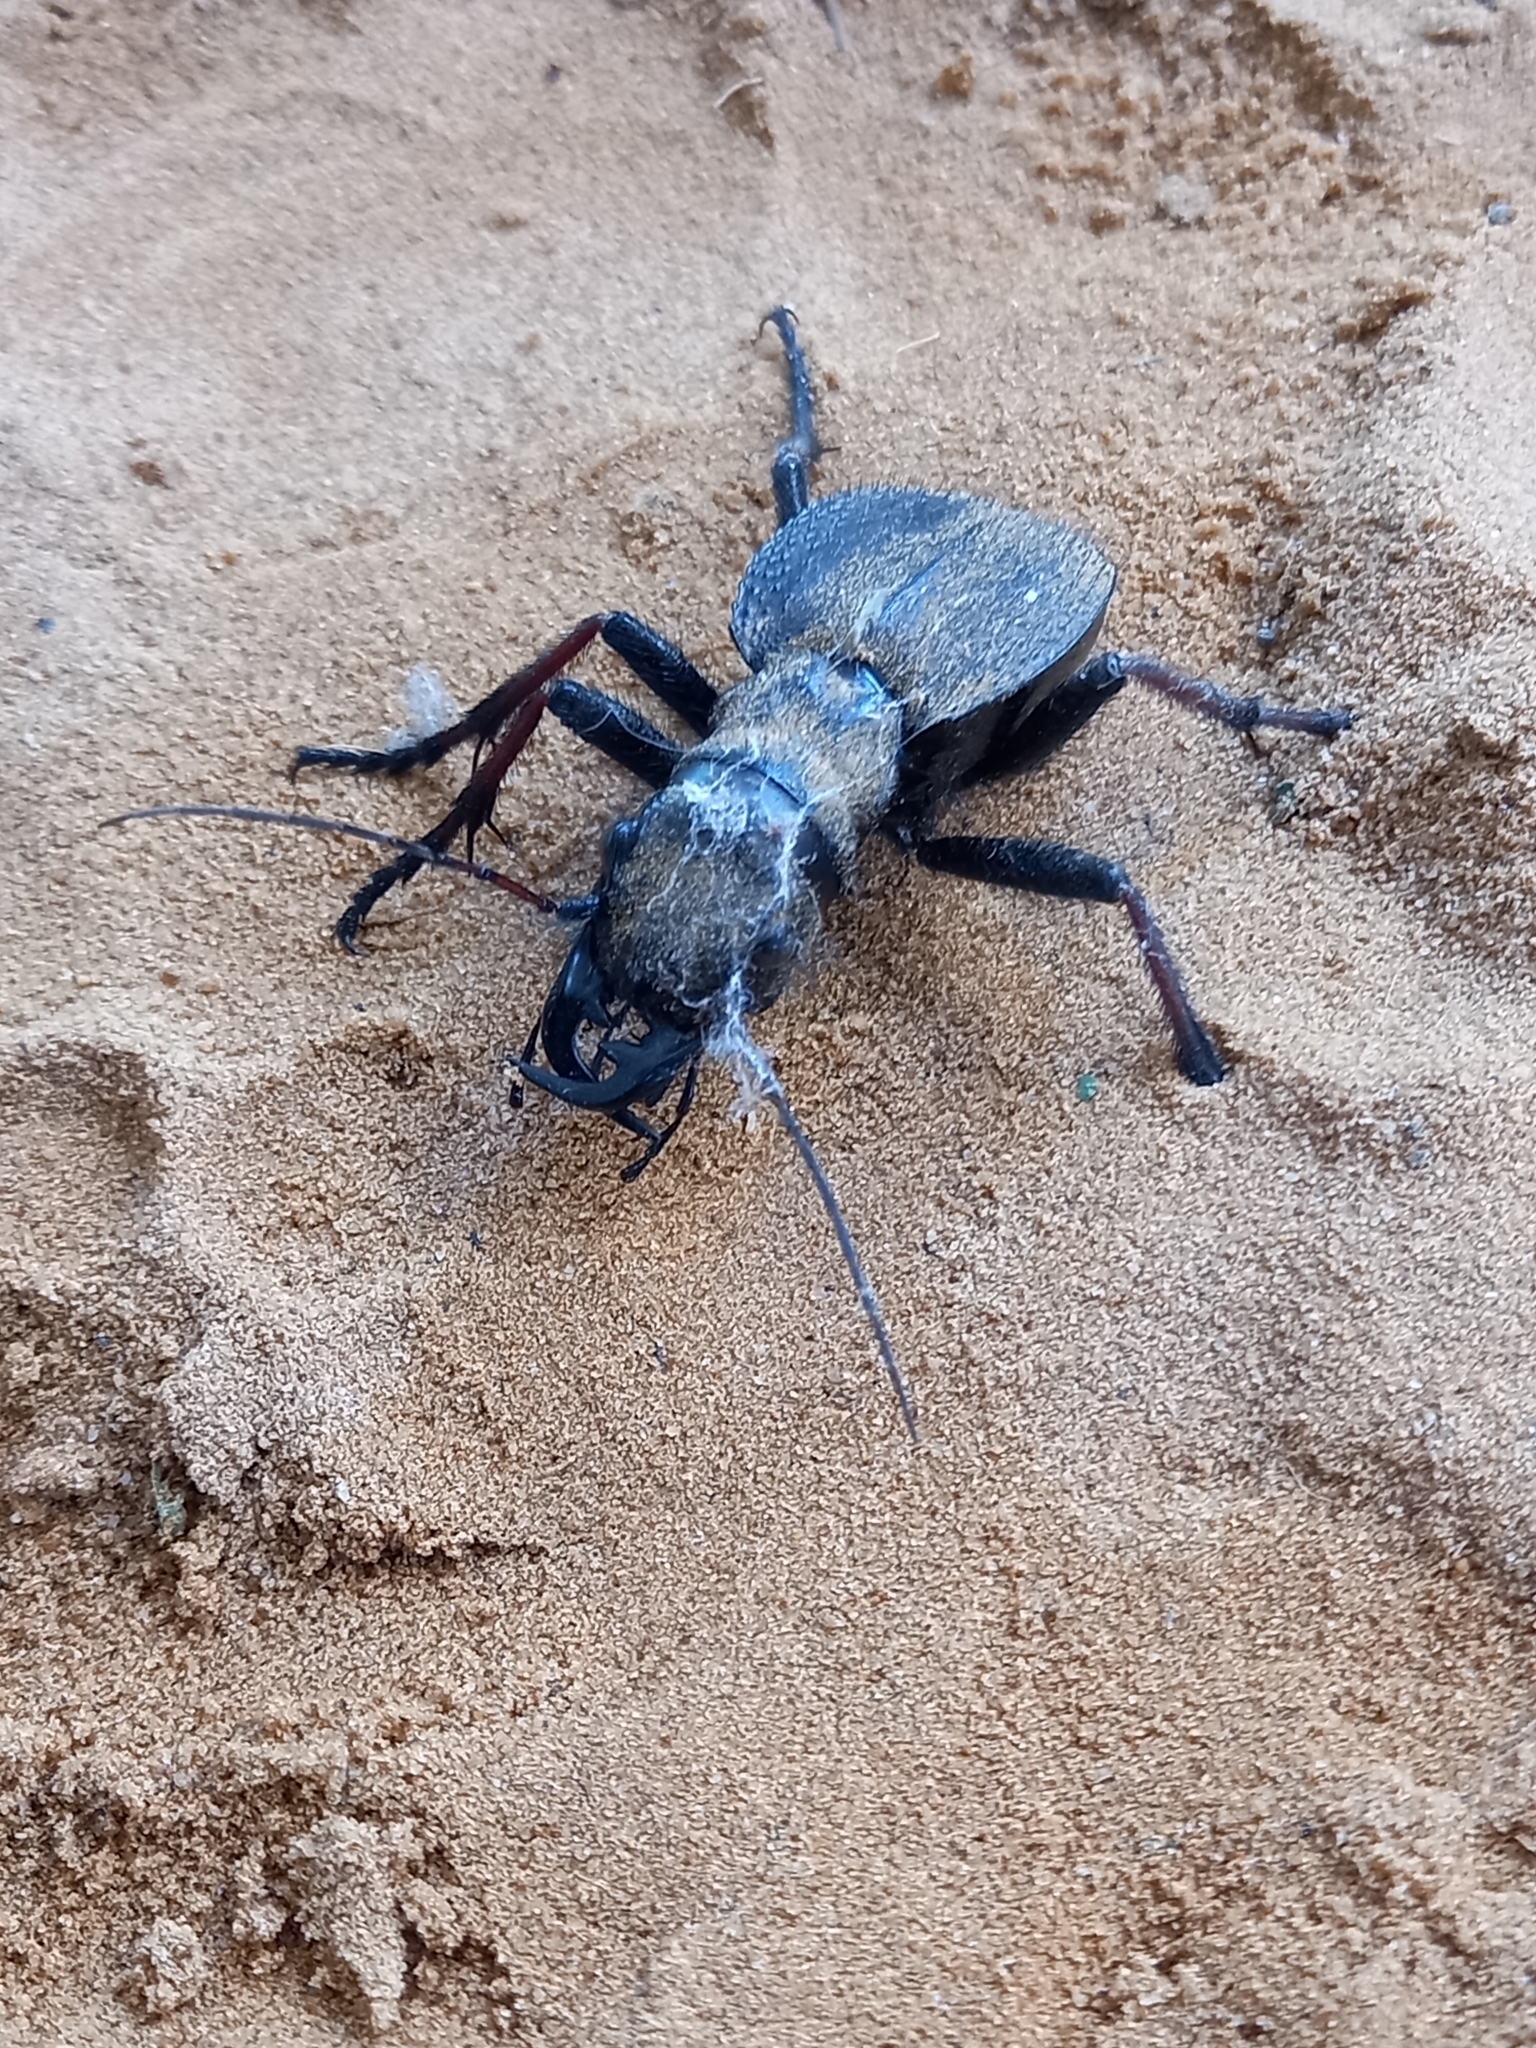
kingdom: Animalia
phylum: Arthropoda
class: Insecta
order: Coleoptera
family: Carabidae
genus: Manticora
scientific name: Manticora tibialis
